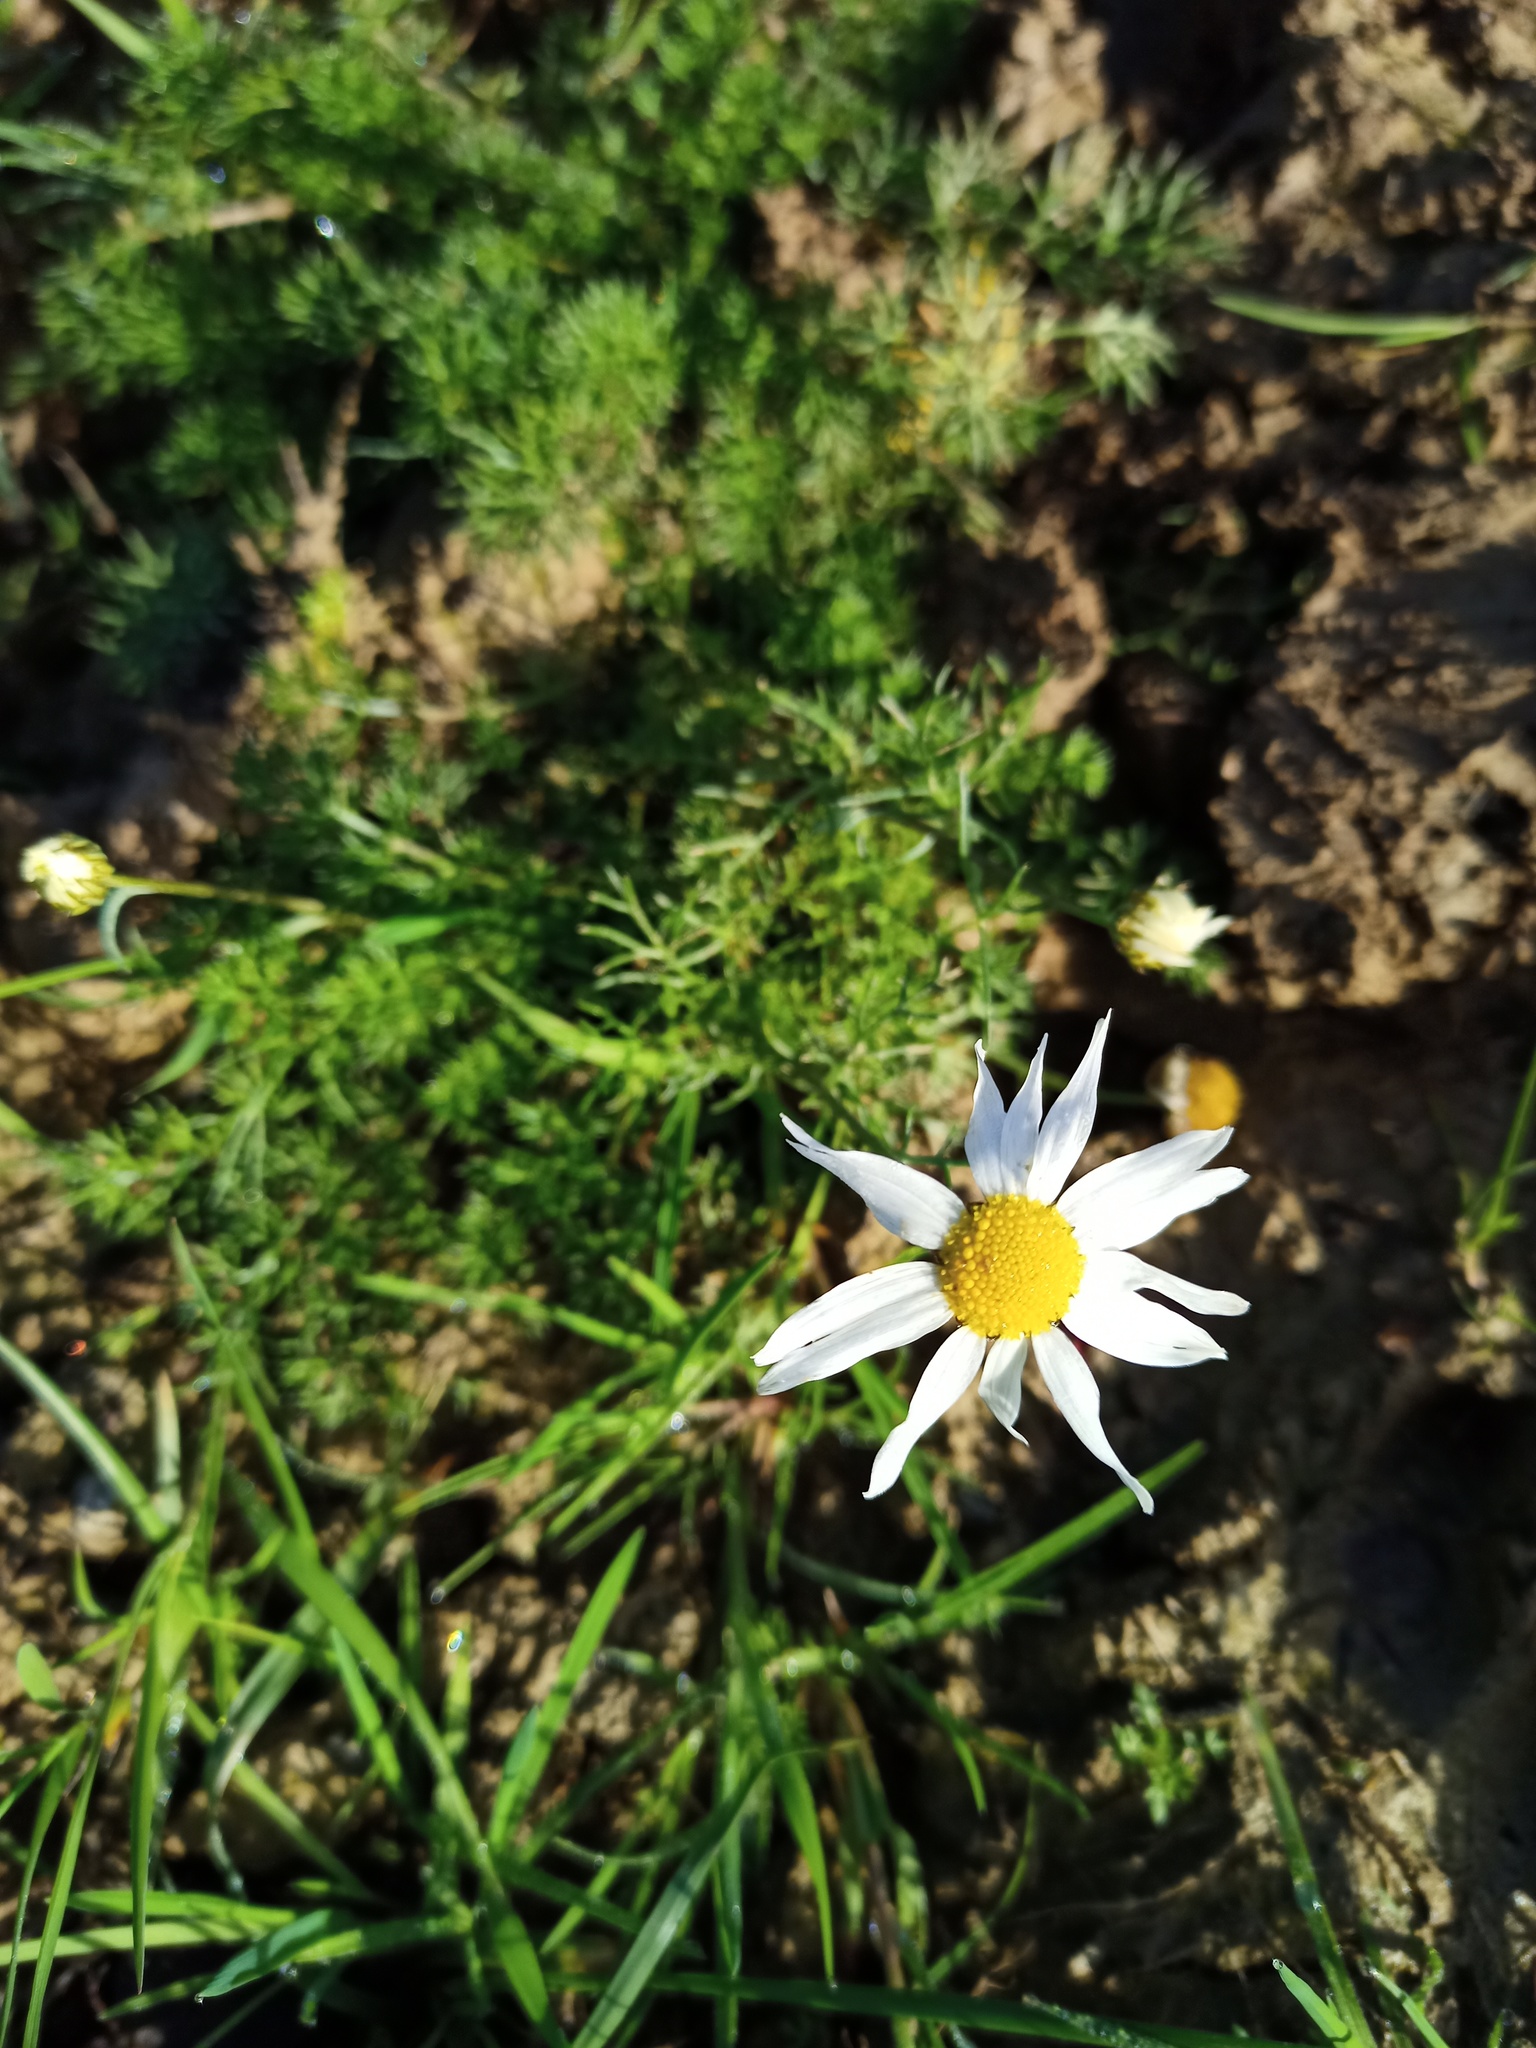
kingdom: Plantae
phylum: Tracheophyta
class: Magnoliopsida
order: Asterales
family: Asteraceae
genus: Tripleurospermum
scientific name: Tripleurospermum inodorum
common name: Scentless mayweed
